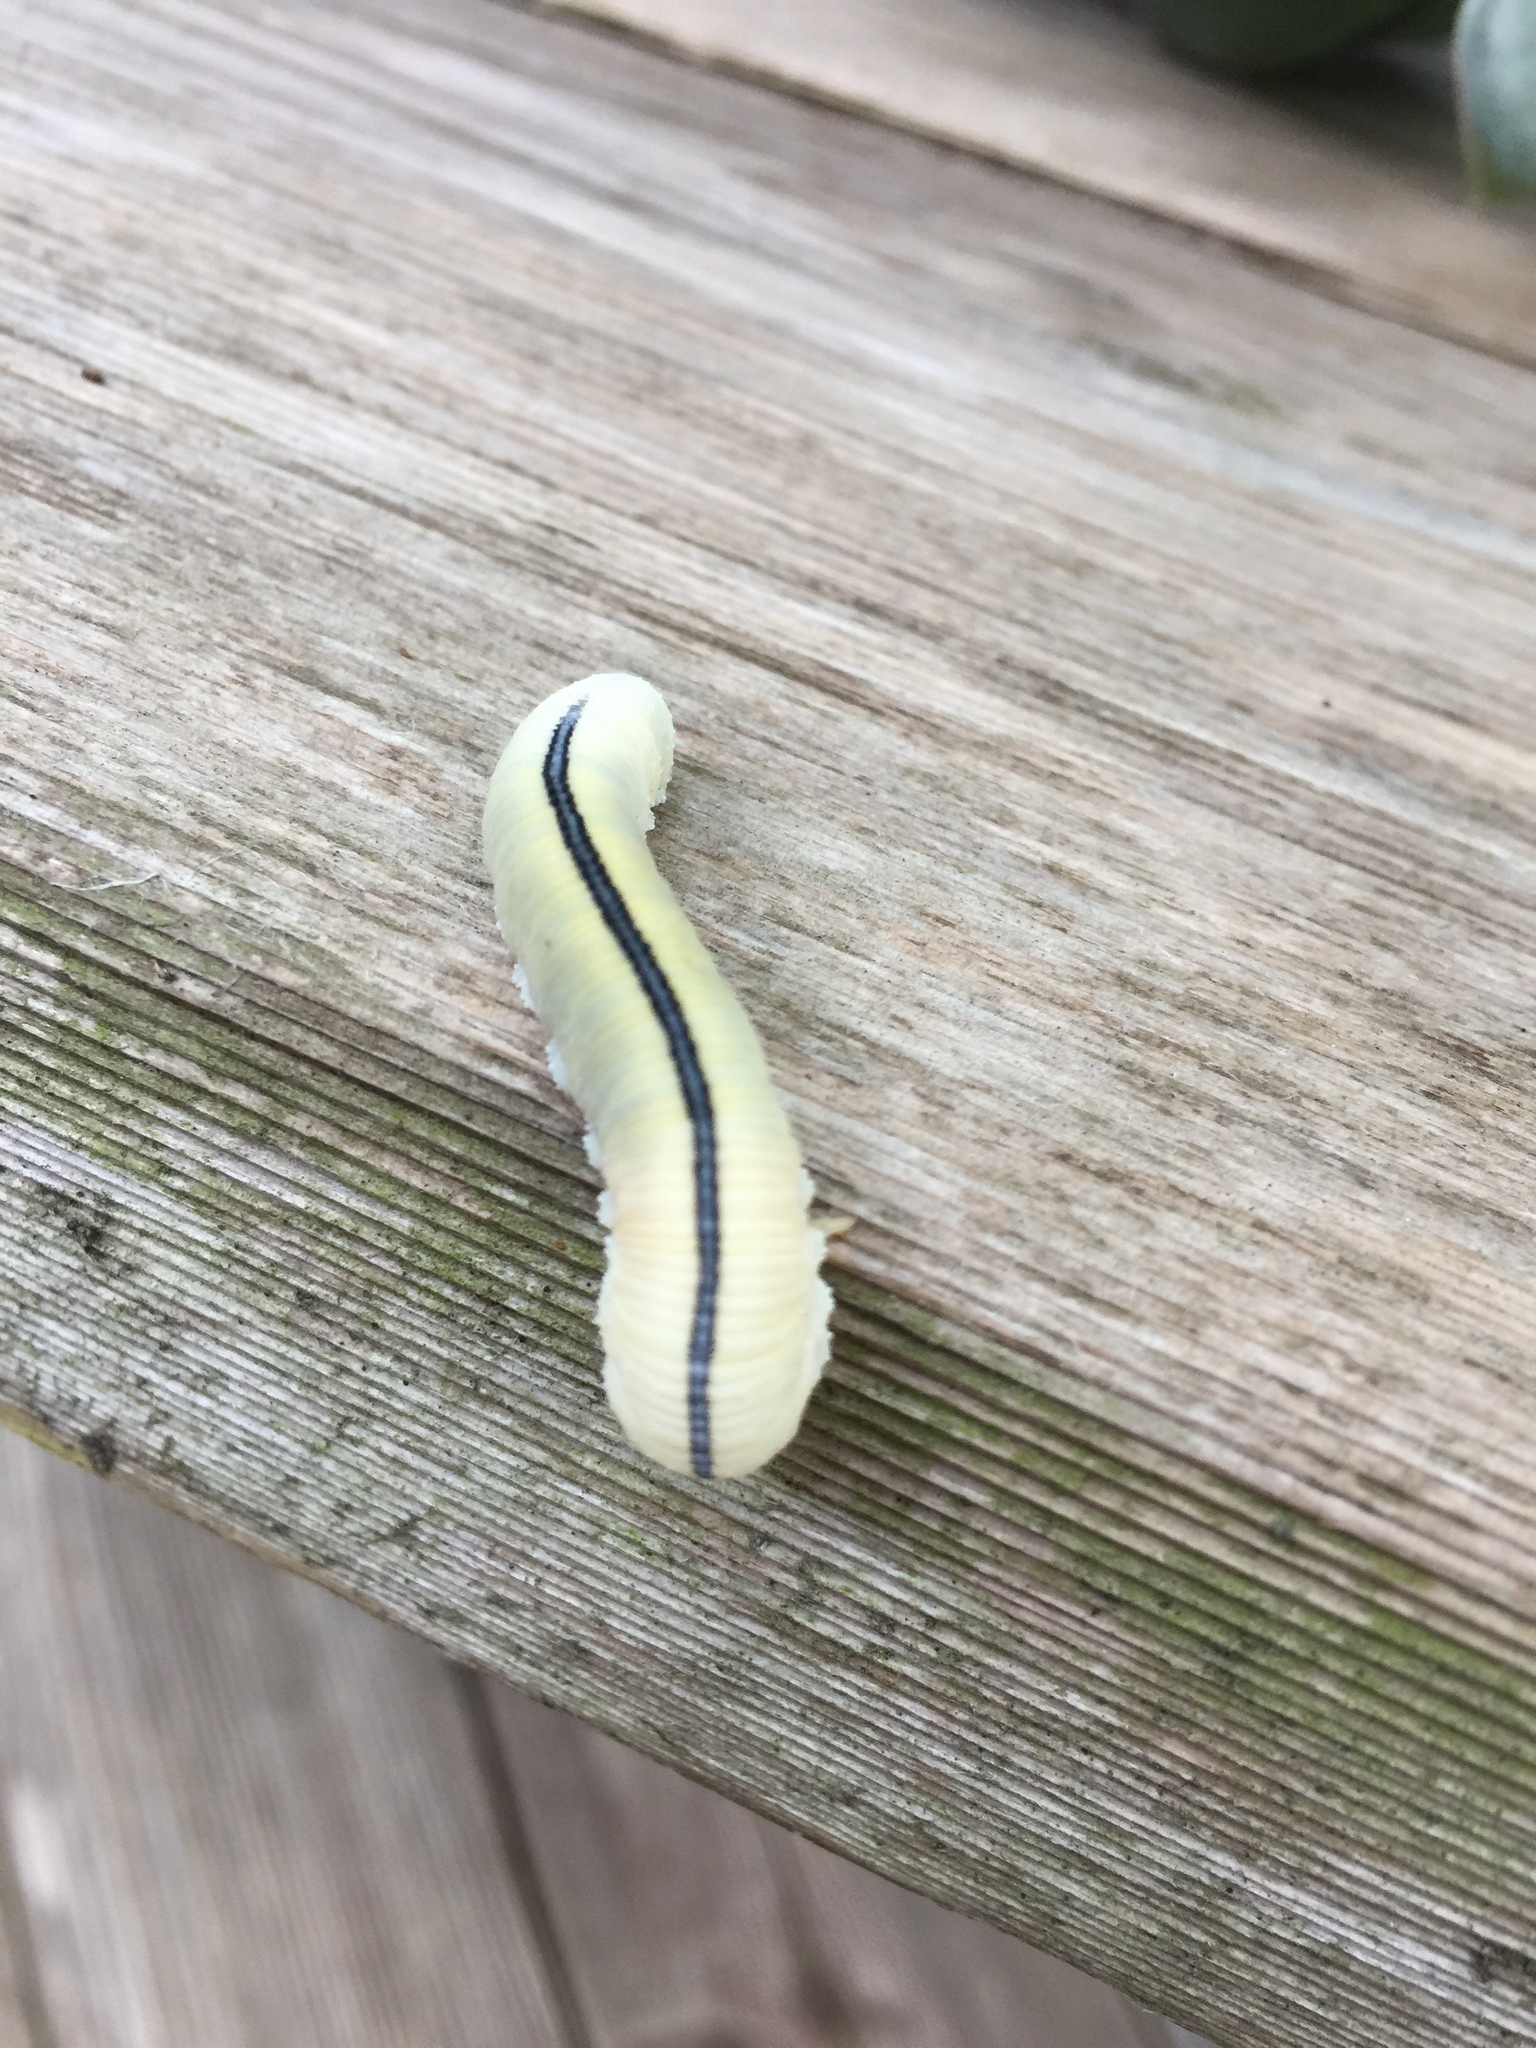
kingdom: Animalia
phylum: Arthropoda
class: Insecta
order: Hymenoptera
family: Cimbicidae
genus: Cimbex
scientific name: Cimbex americana
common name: Elm sawfly
